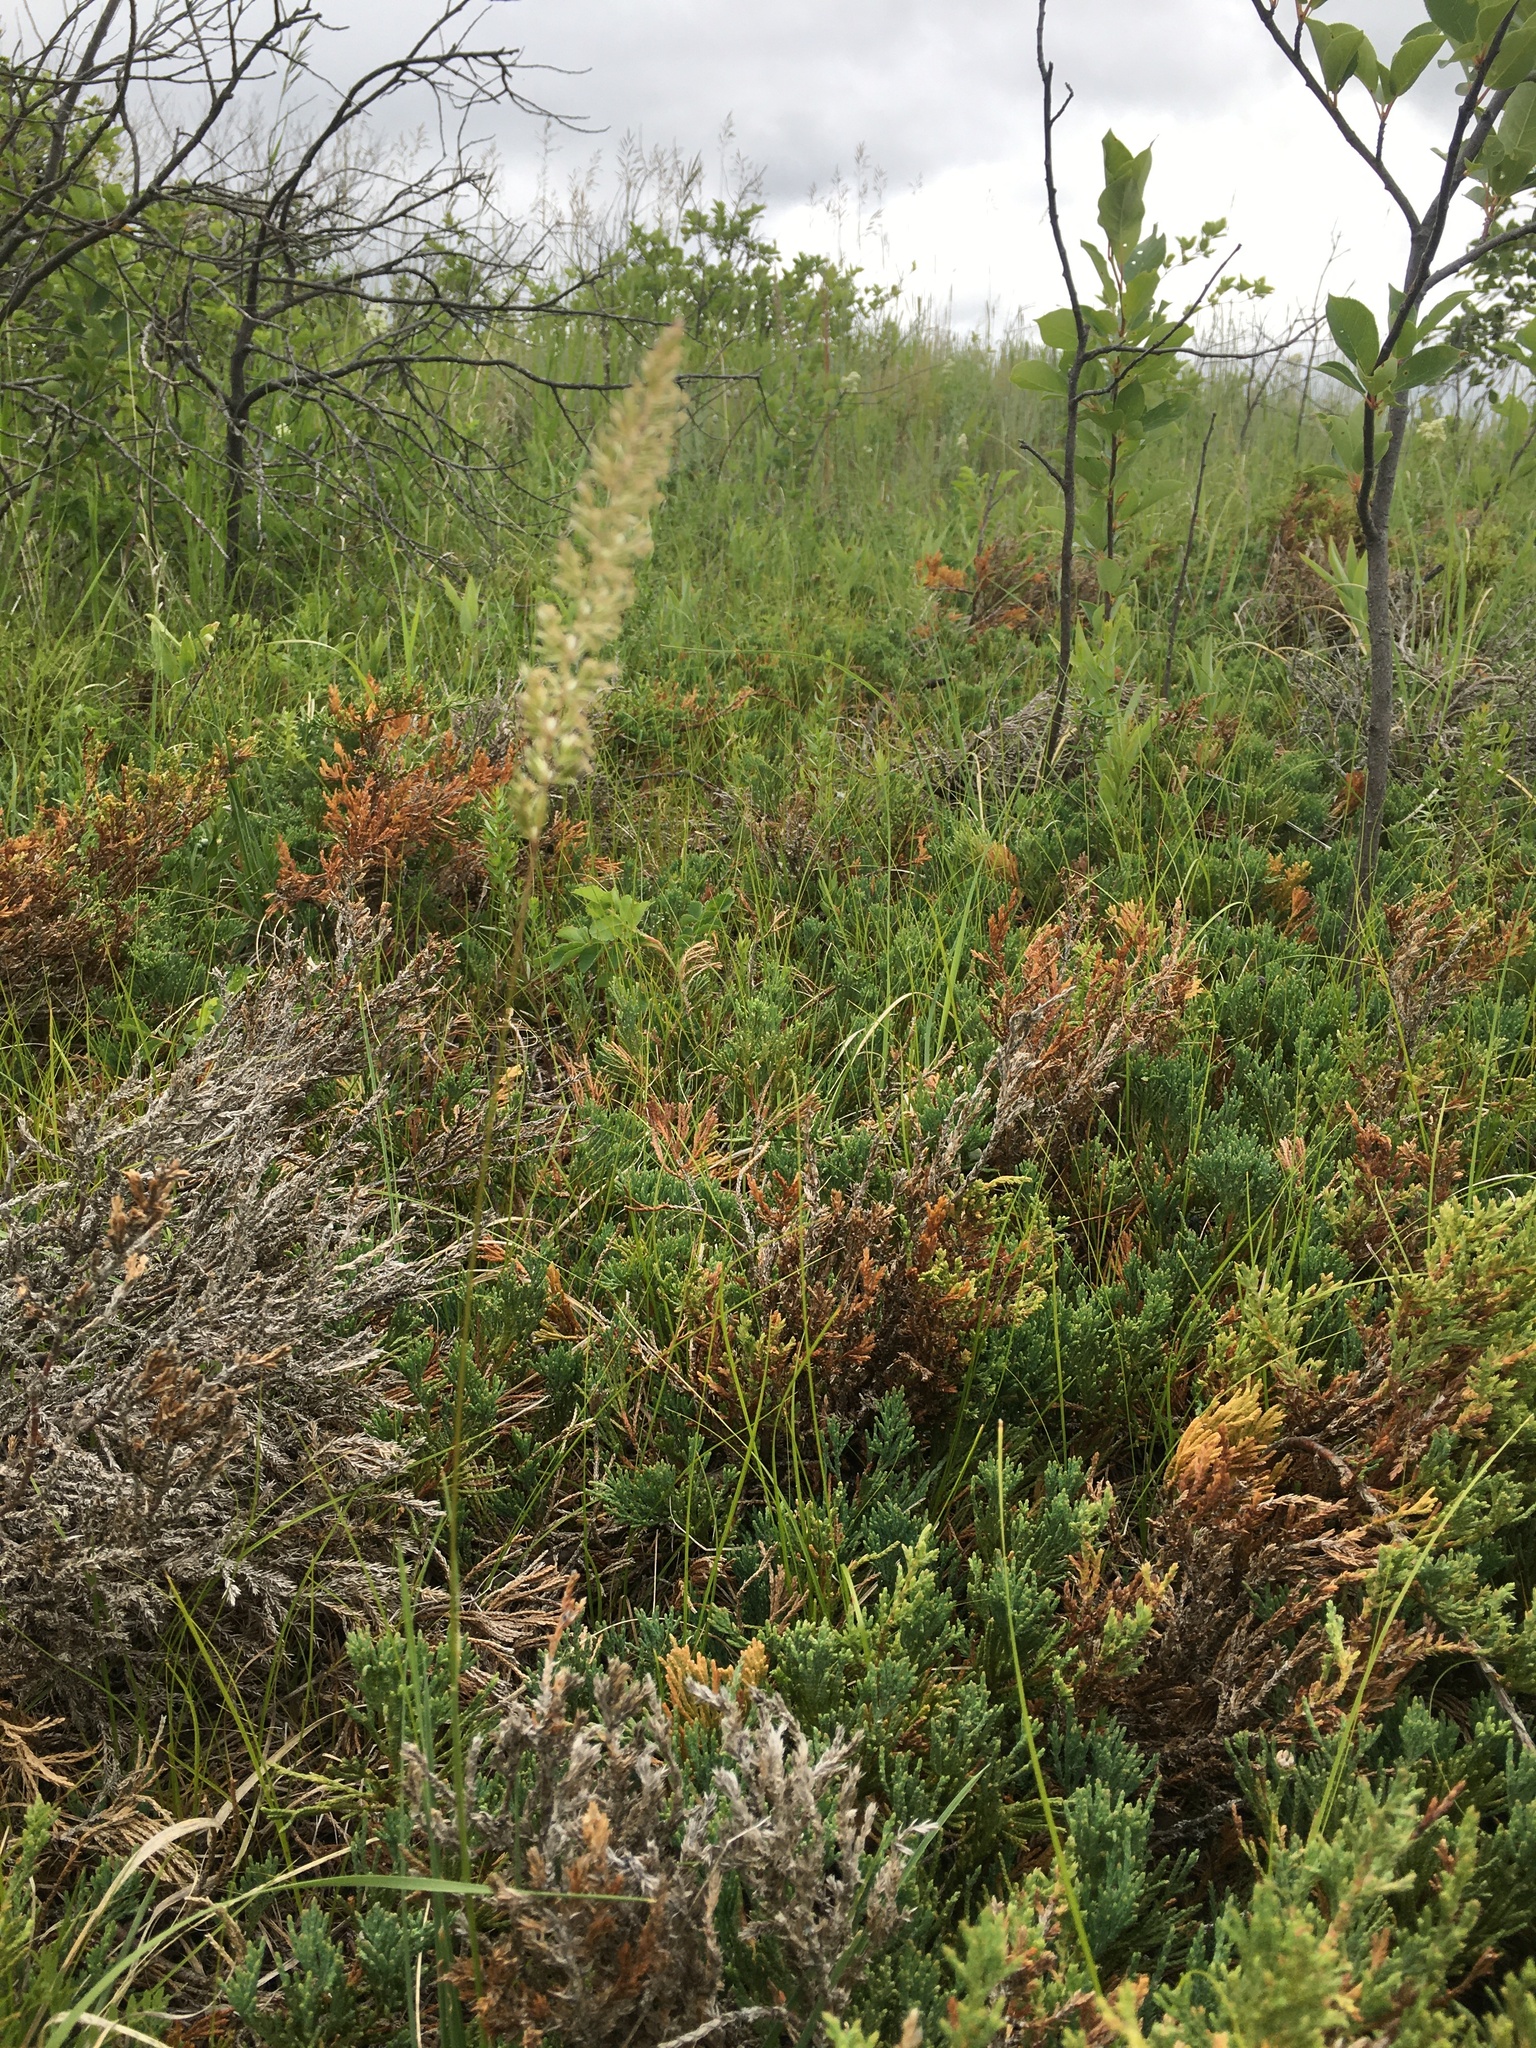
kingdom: Plantae
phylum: Tracheophyta
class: Liliopsida
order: Poales
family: Poaceae
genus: Koeleria
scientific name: Koeleria macrantha
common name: Crested hair-grass
